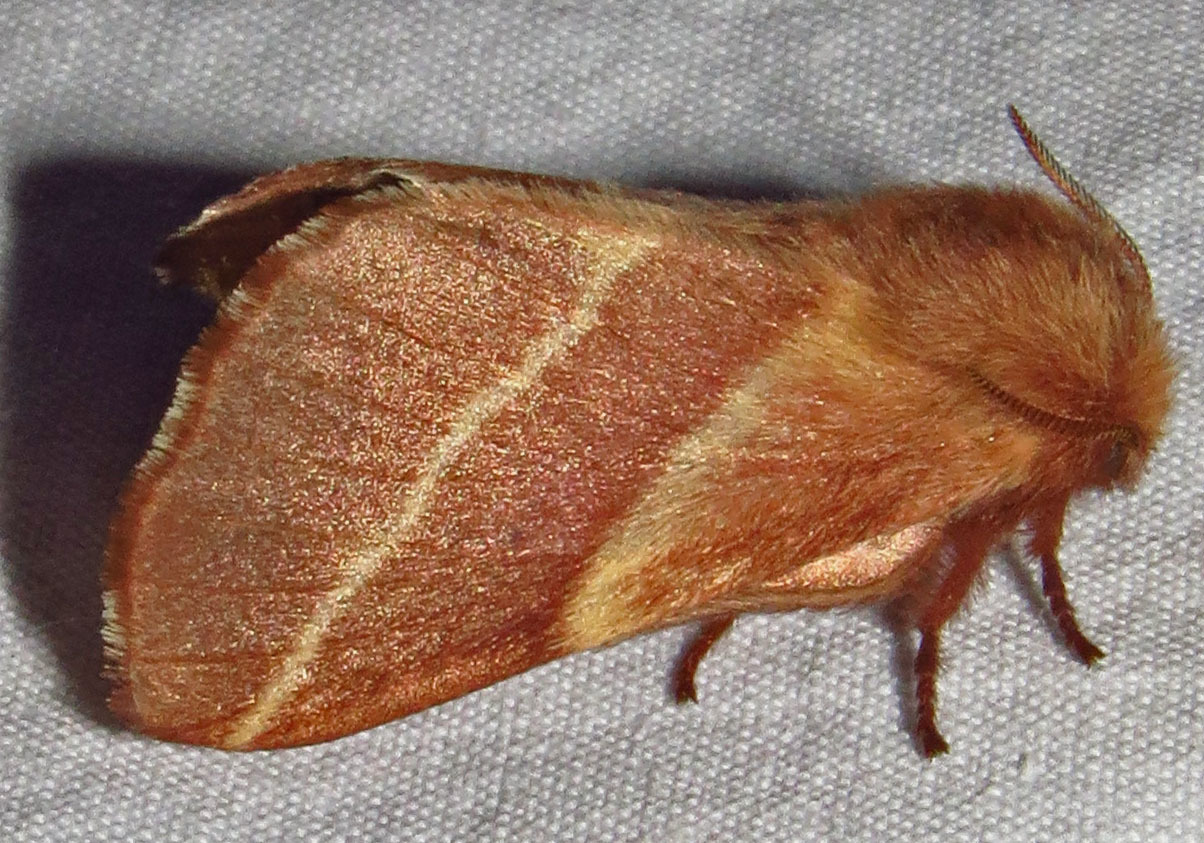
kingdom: Animalia
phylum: Arthropoda
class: Insecta
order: Lepidoptera
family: Lasiocampidae
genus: Malacosoma
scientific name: Malacosoma americana
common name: Eastern tent caterpillar moth
